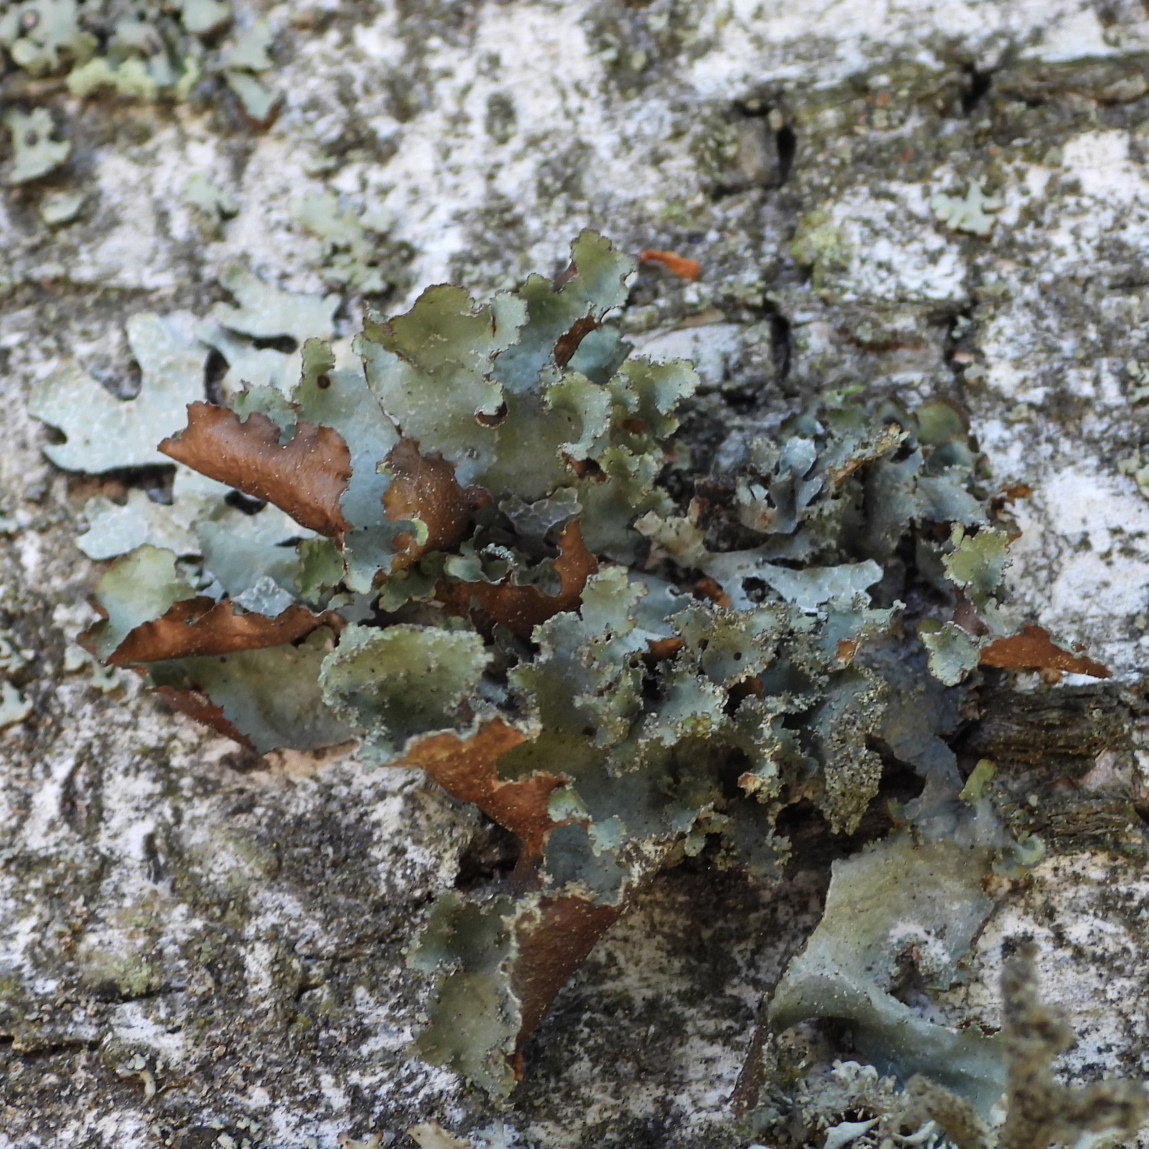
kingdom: Fungi
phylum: Ascomycota
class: Lecanoromycetes
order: Lecanorales
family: Parmeliaceae
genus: Platismatia
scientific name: Platismatia glauca
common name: Varied rag lichen
